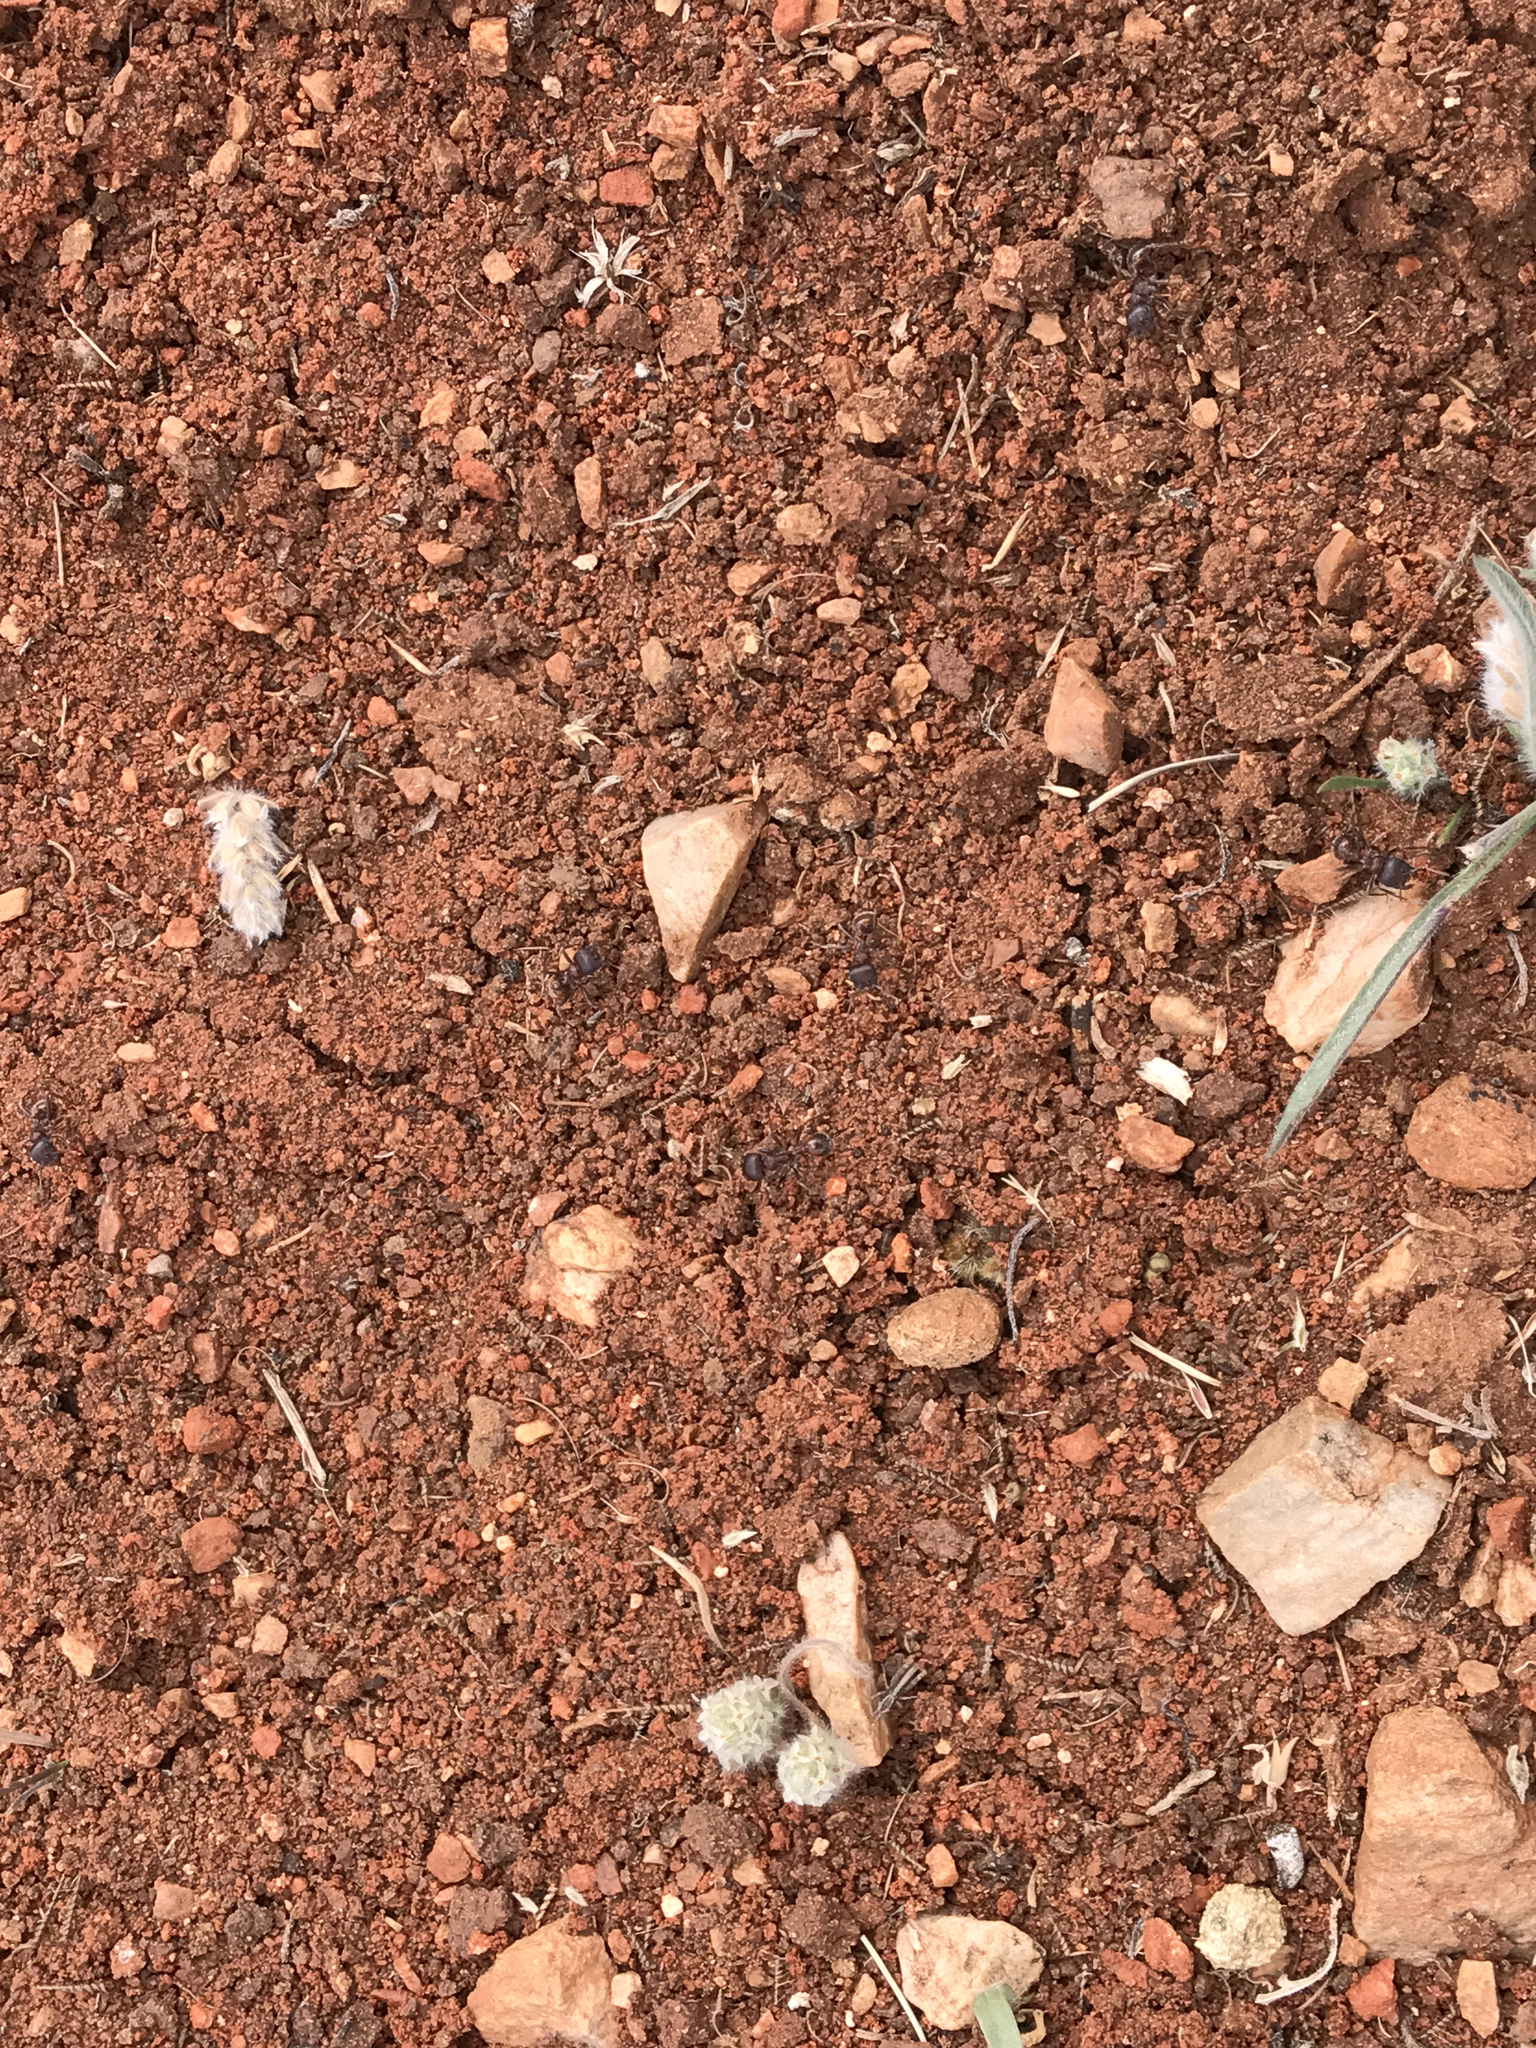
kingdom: Animalia
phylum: Arthropoda
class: Insecta
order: Hymenoptera
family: Formicidae
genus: Pogonomyrmex
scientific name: Pogonomyrmex rugosus
